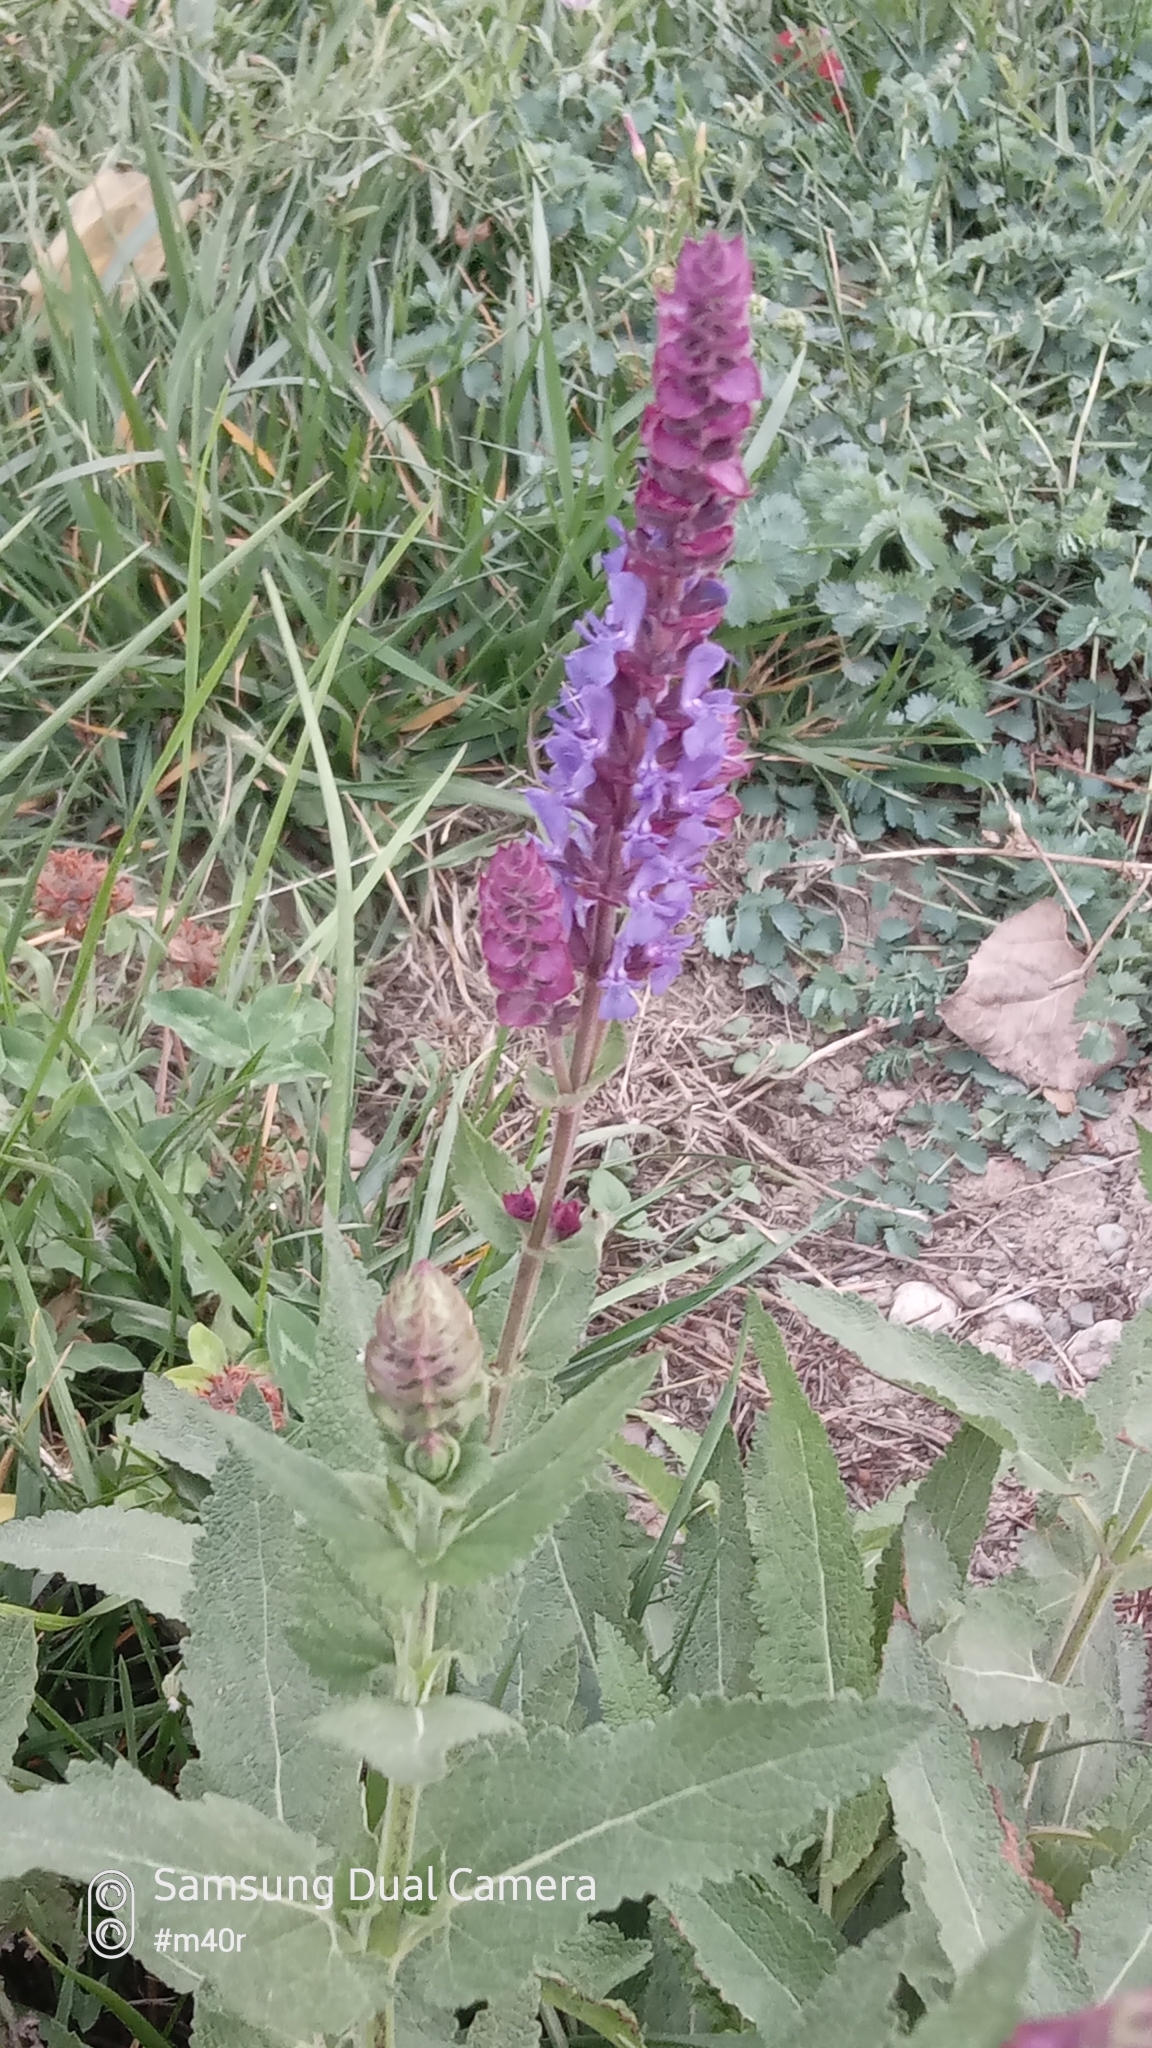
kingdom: Plantae
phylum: Tracheophyta
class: Magnoliopsida
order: Lamiales
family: Lamiaceae
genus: Salvia
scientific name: Salvia deserta
